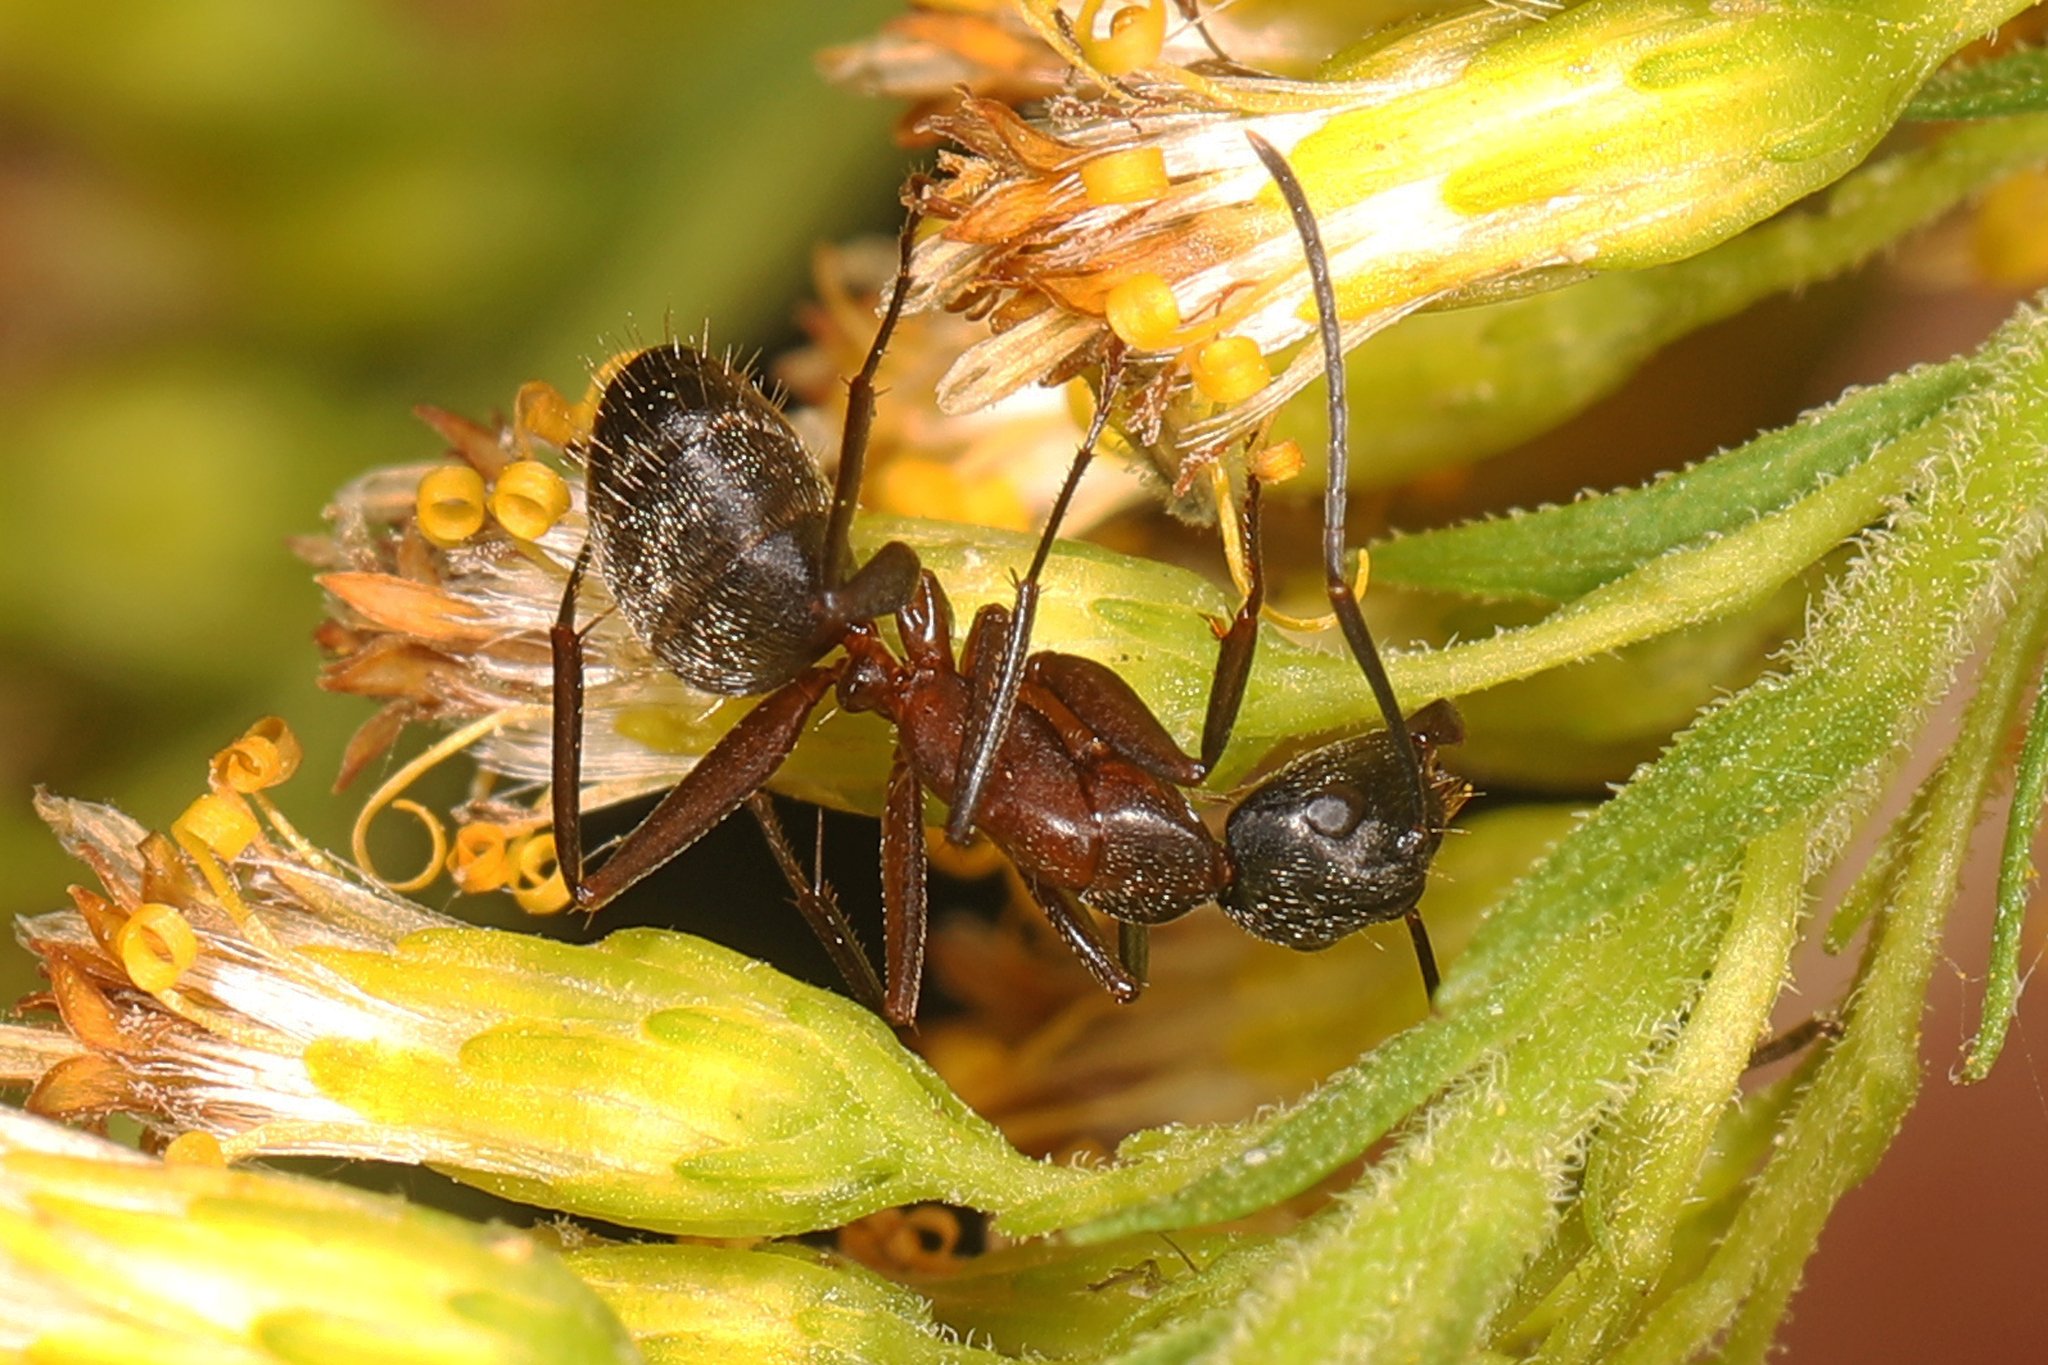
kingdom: Animalia
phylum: Arthropoda
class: Insecta
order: Hymenoptera
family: Formicidae
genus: Camponotus
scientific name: Camponotus chromaiodes
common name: Red carpenter ant
